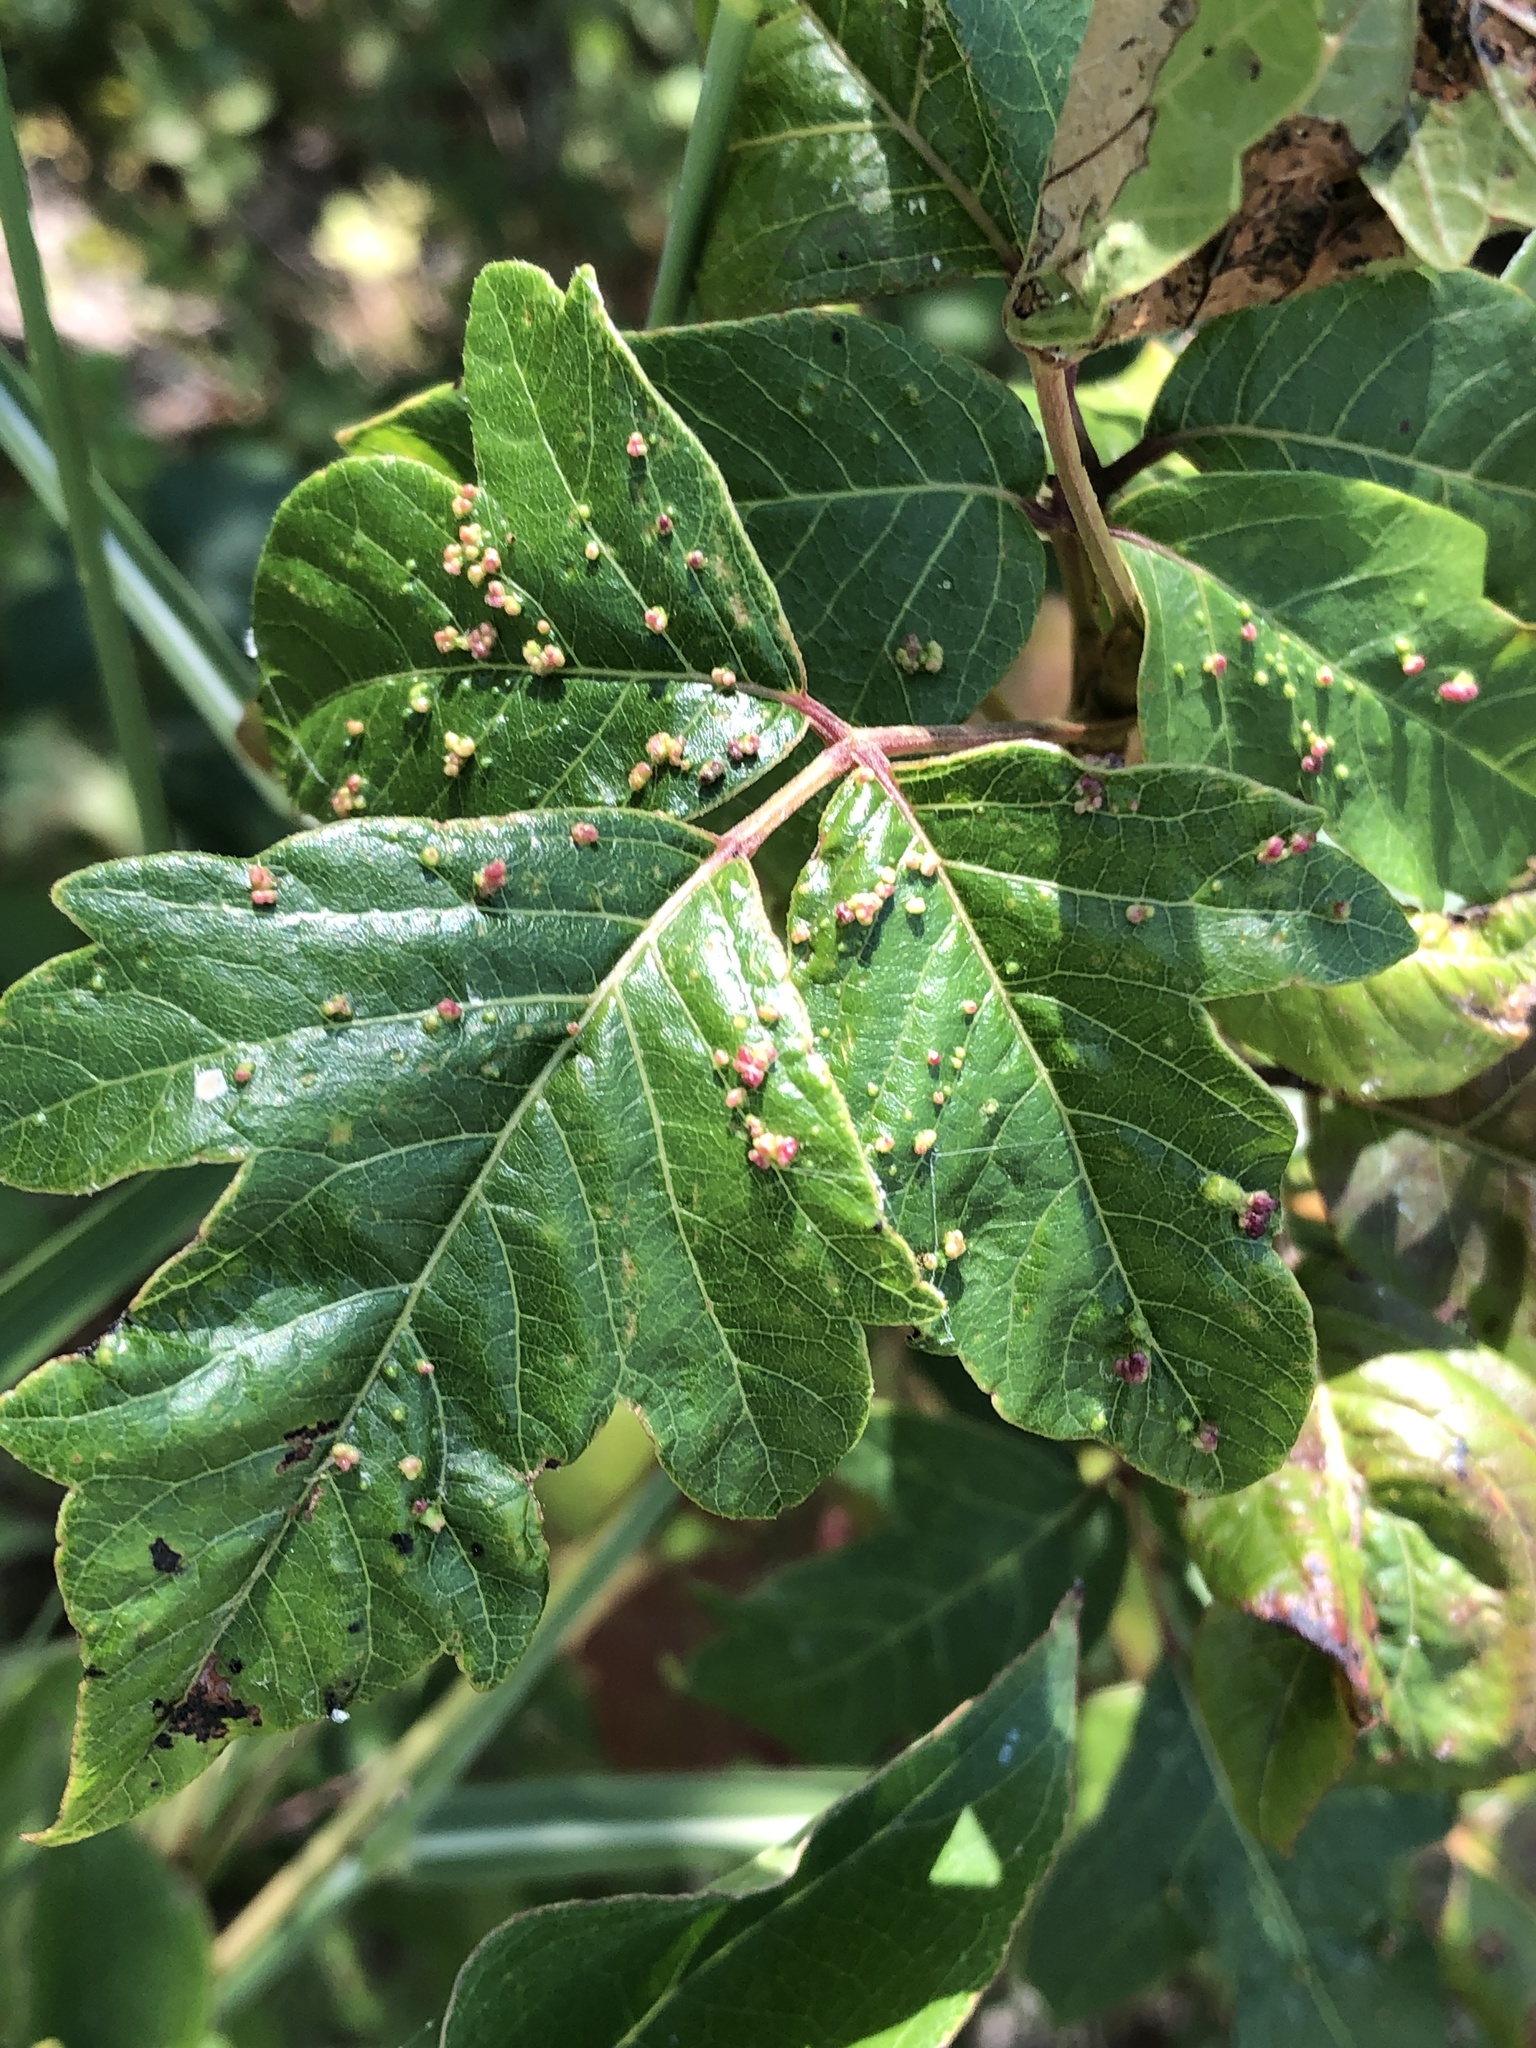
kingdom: Animalia
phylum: Arthropoda
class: Arachnida
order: Trombidiformes
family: Eriophyidae
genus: Aculops
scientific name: Aculops
